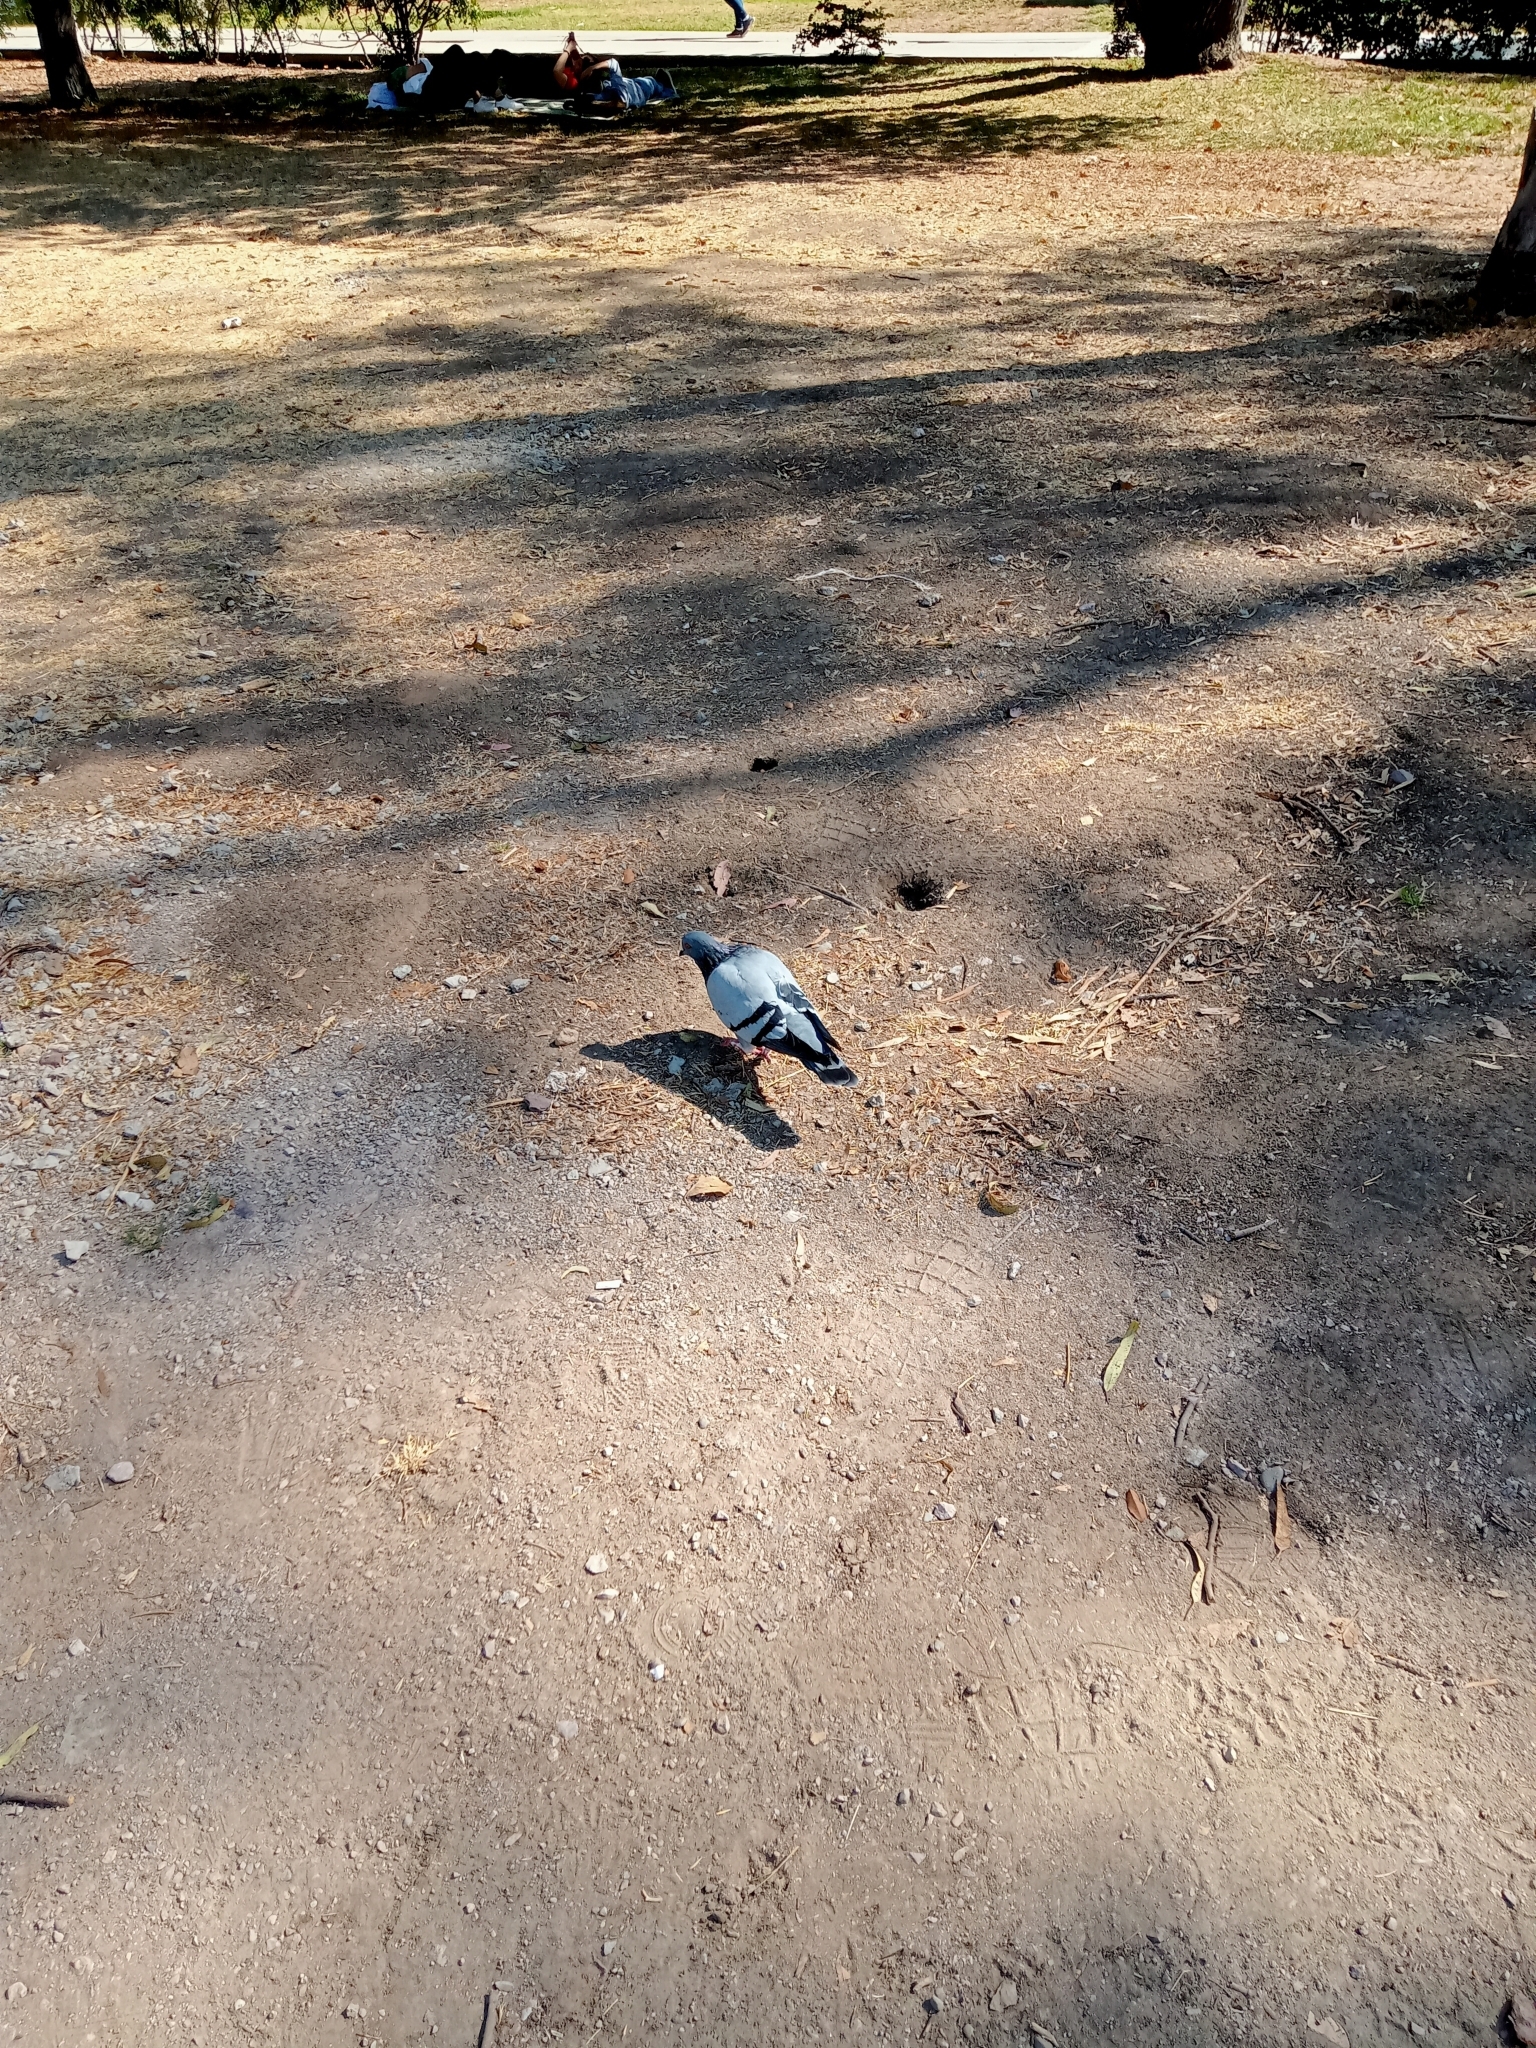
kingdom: Animalia
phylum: Chordata
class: Aves
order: Columbiformes
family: Columbidae
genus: Columba
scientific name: Columba livia
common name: Rock pigeon
